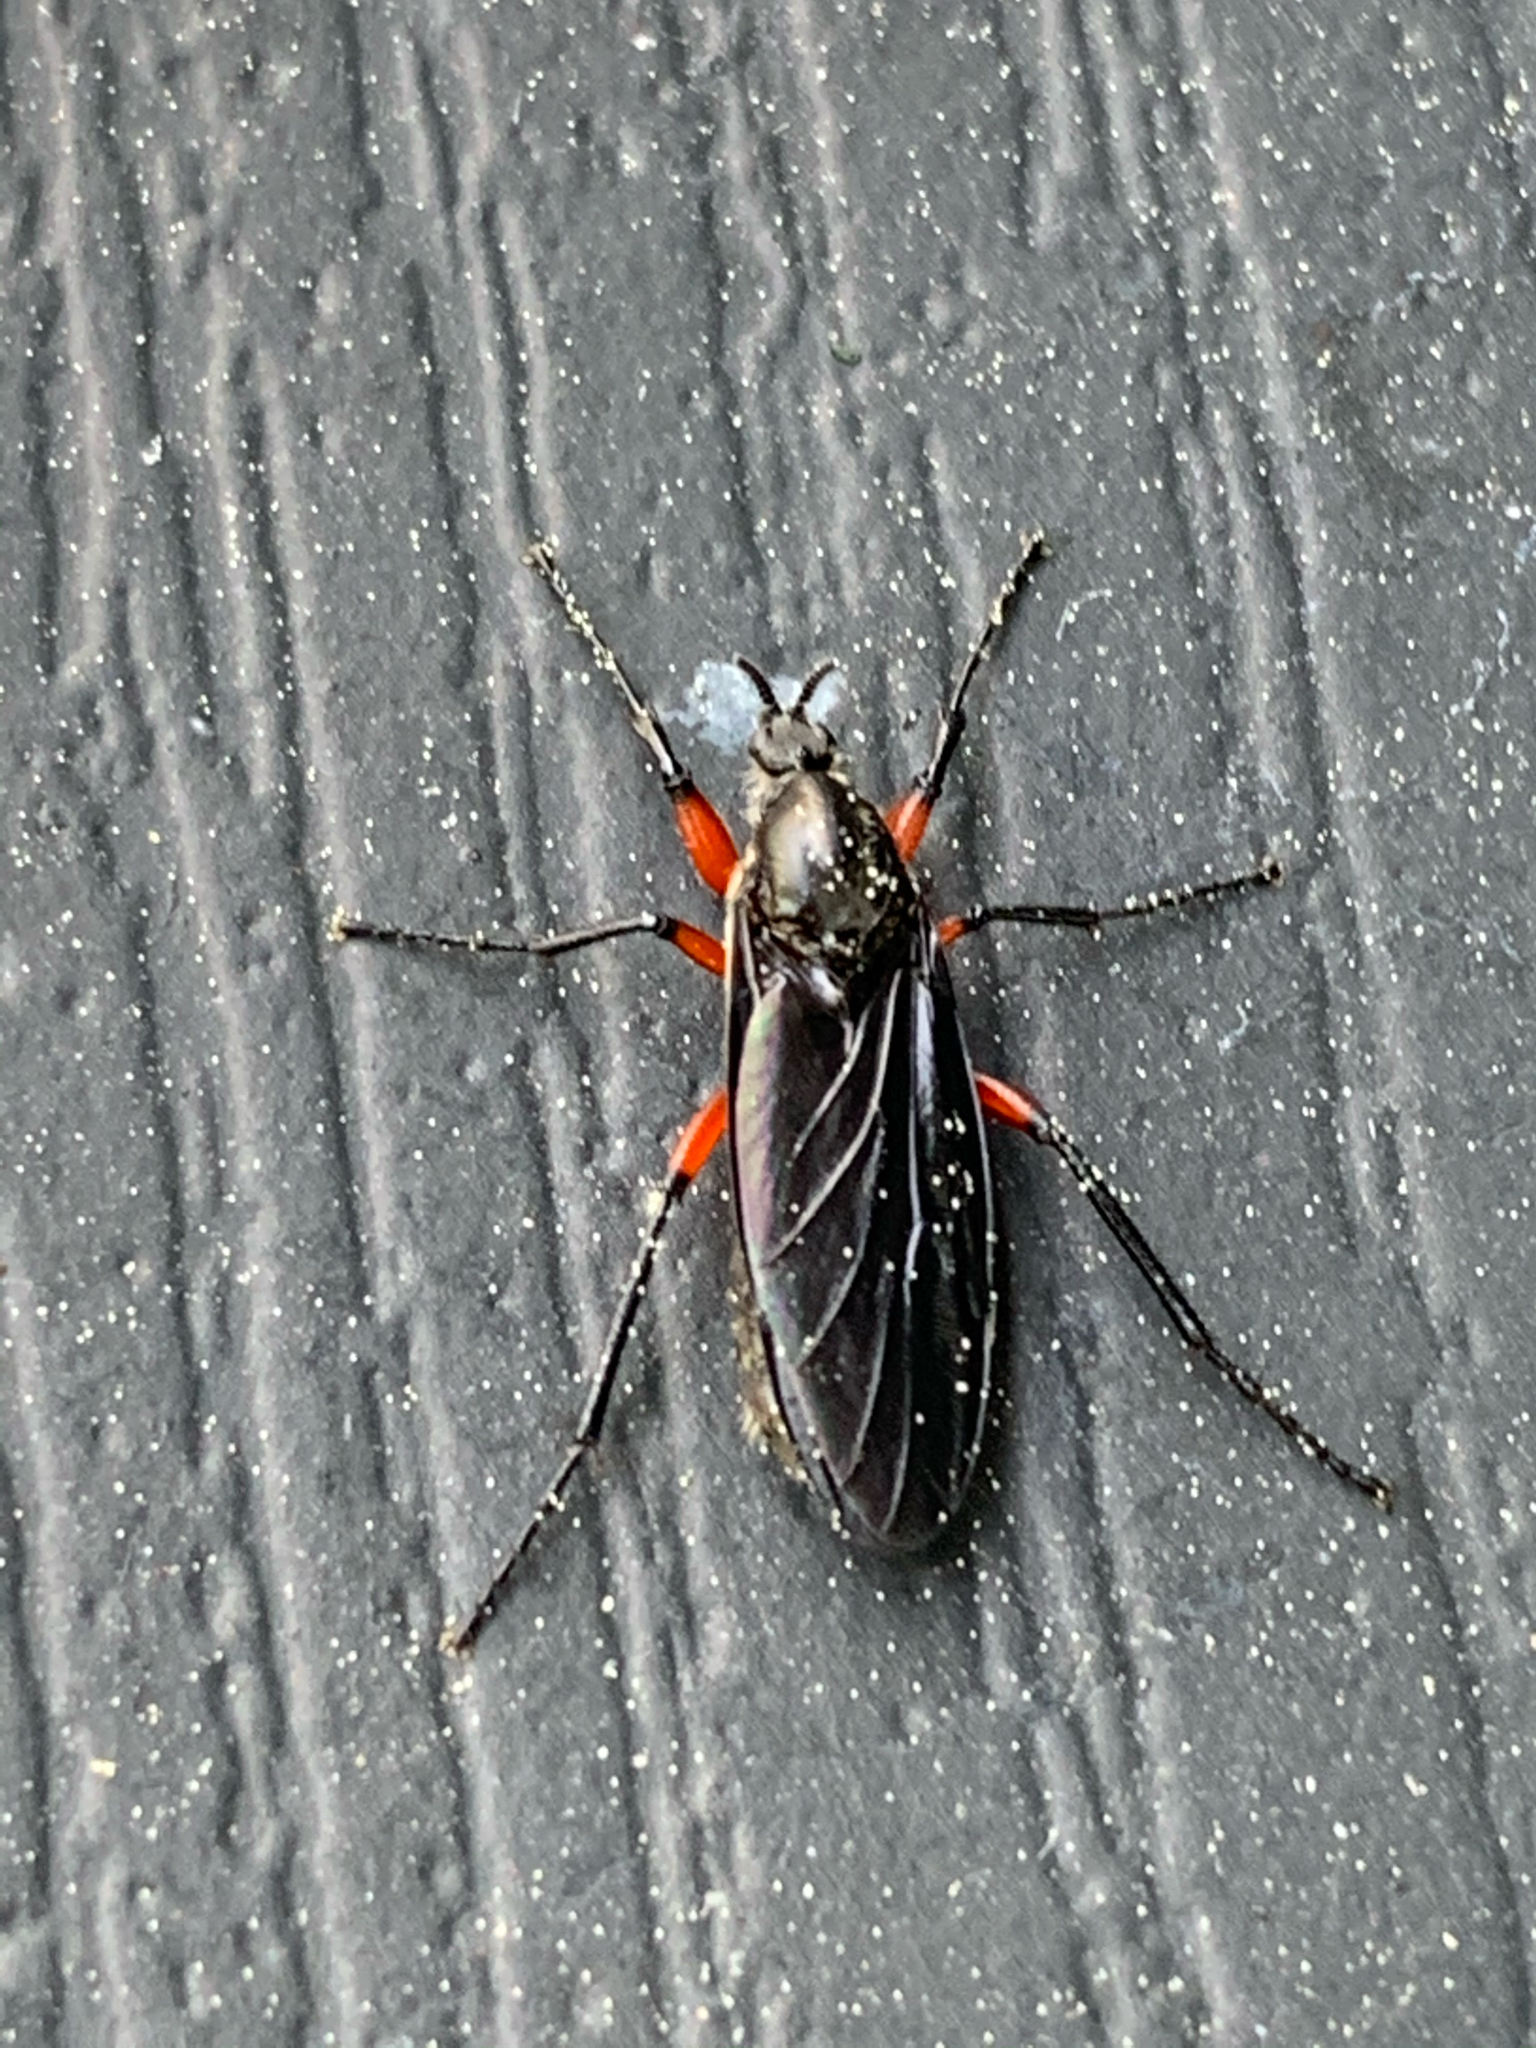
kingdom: Animalia
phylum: Arthropoda
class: Insecta
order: Diptera
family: Bibionidae
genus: Bibio
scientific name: Bibio femoratus
